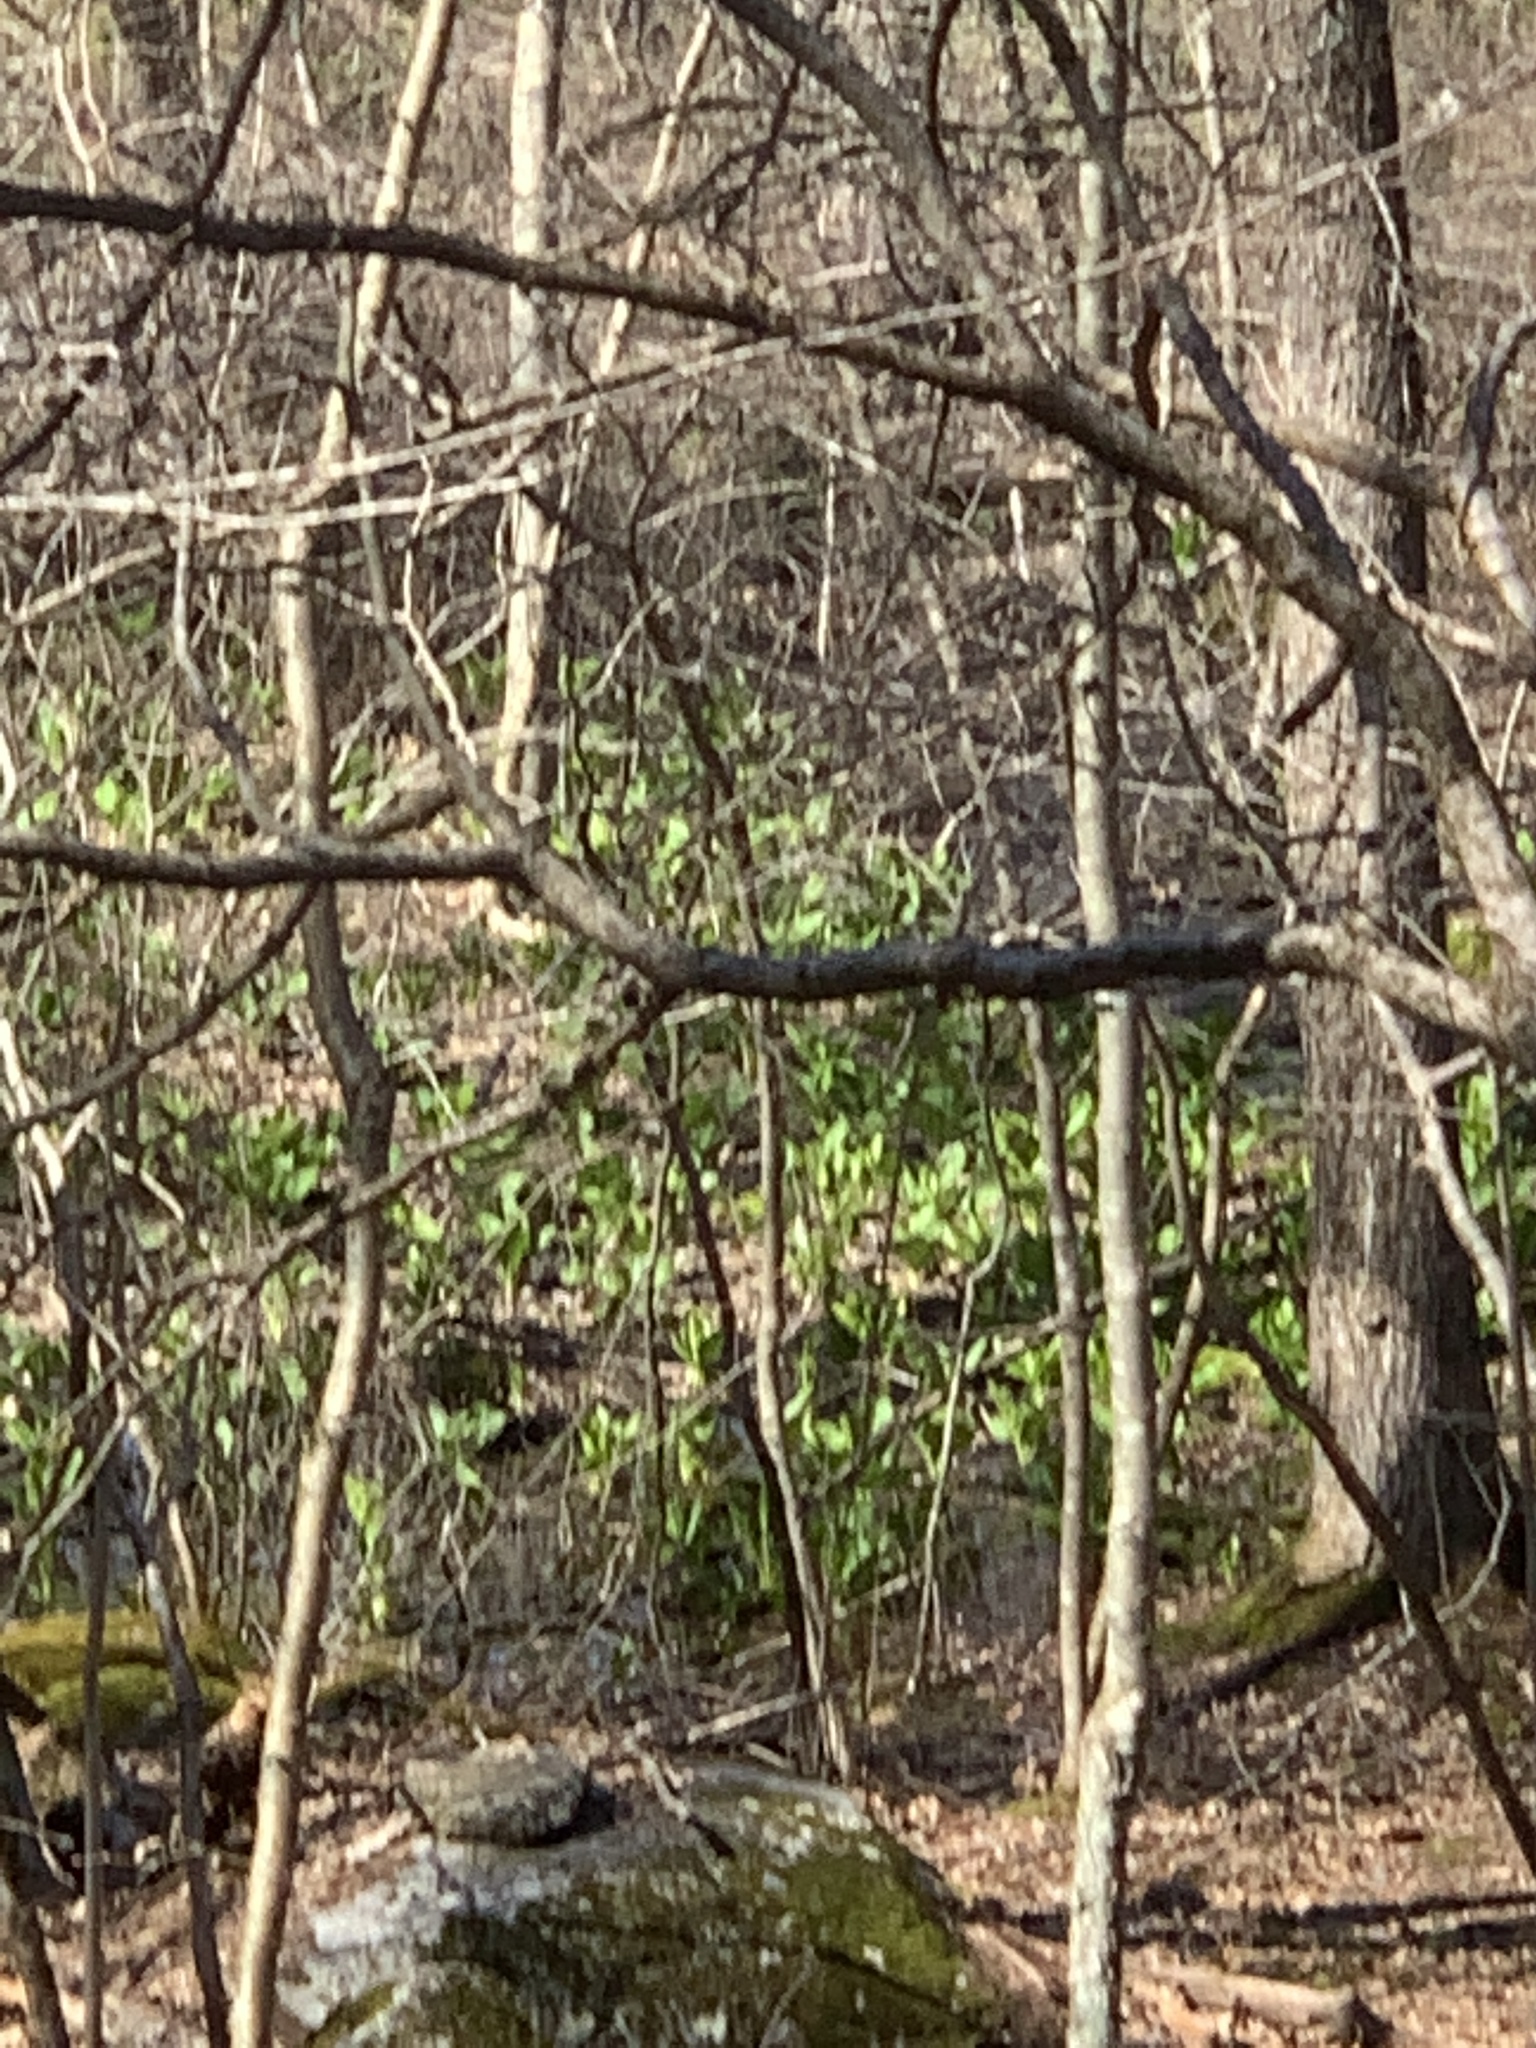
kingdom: Plantae
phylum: Tracheophyta
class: Liliopsida
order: Alismatales
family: Araceae
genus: Symplocarpus
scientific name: Symplocarpus foetidus
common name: Eastern skunk cabbage
